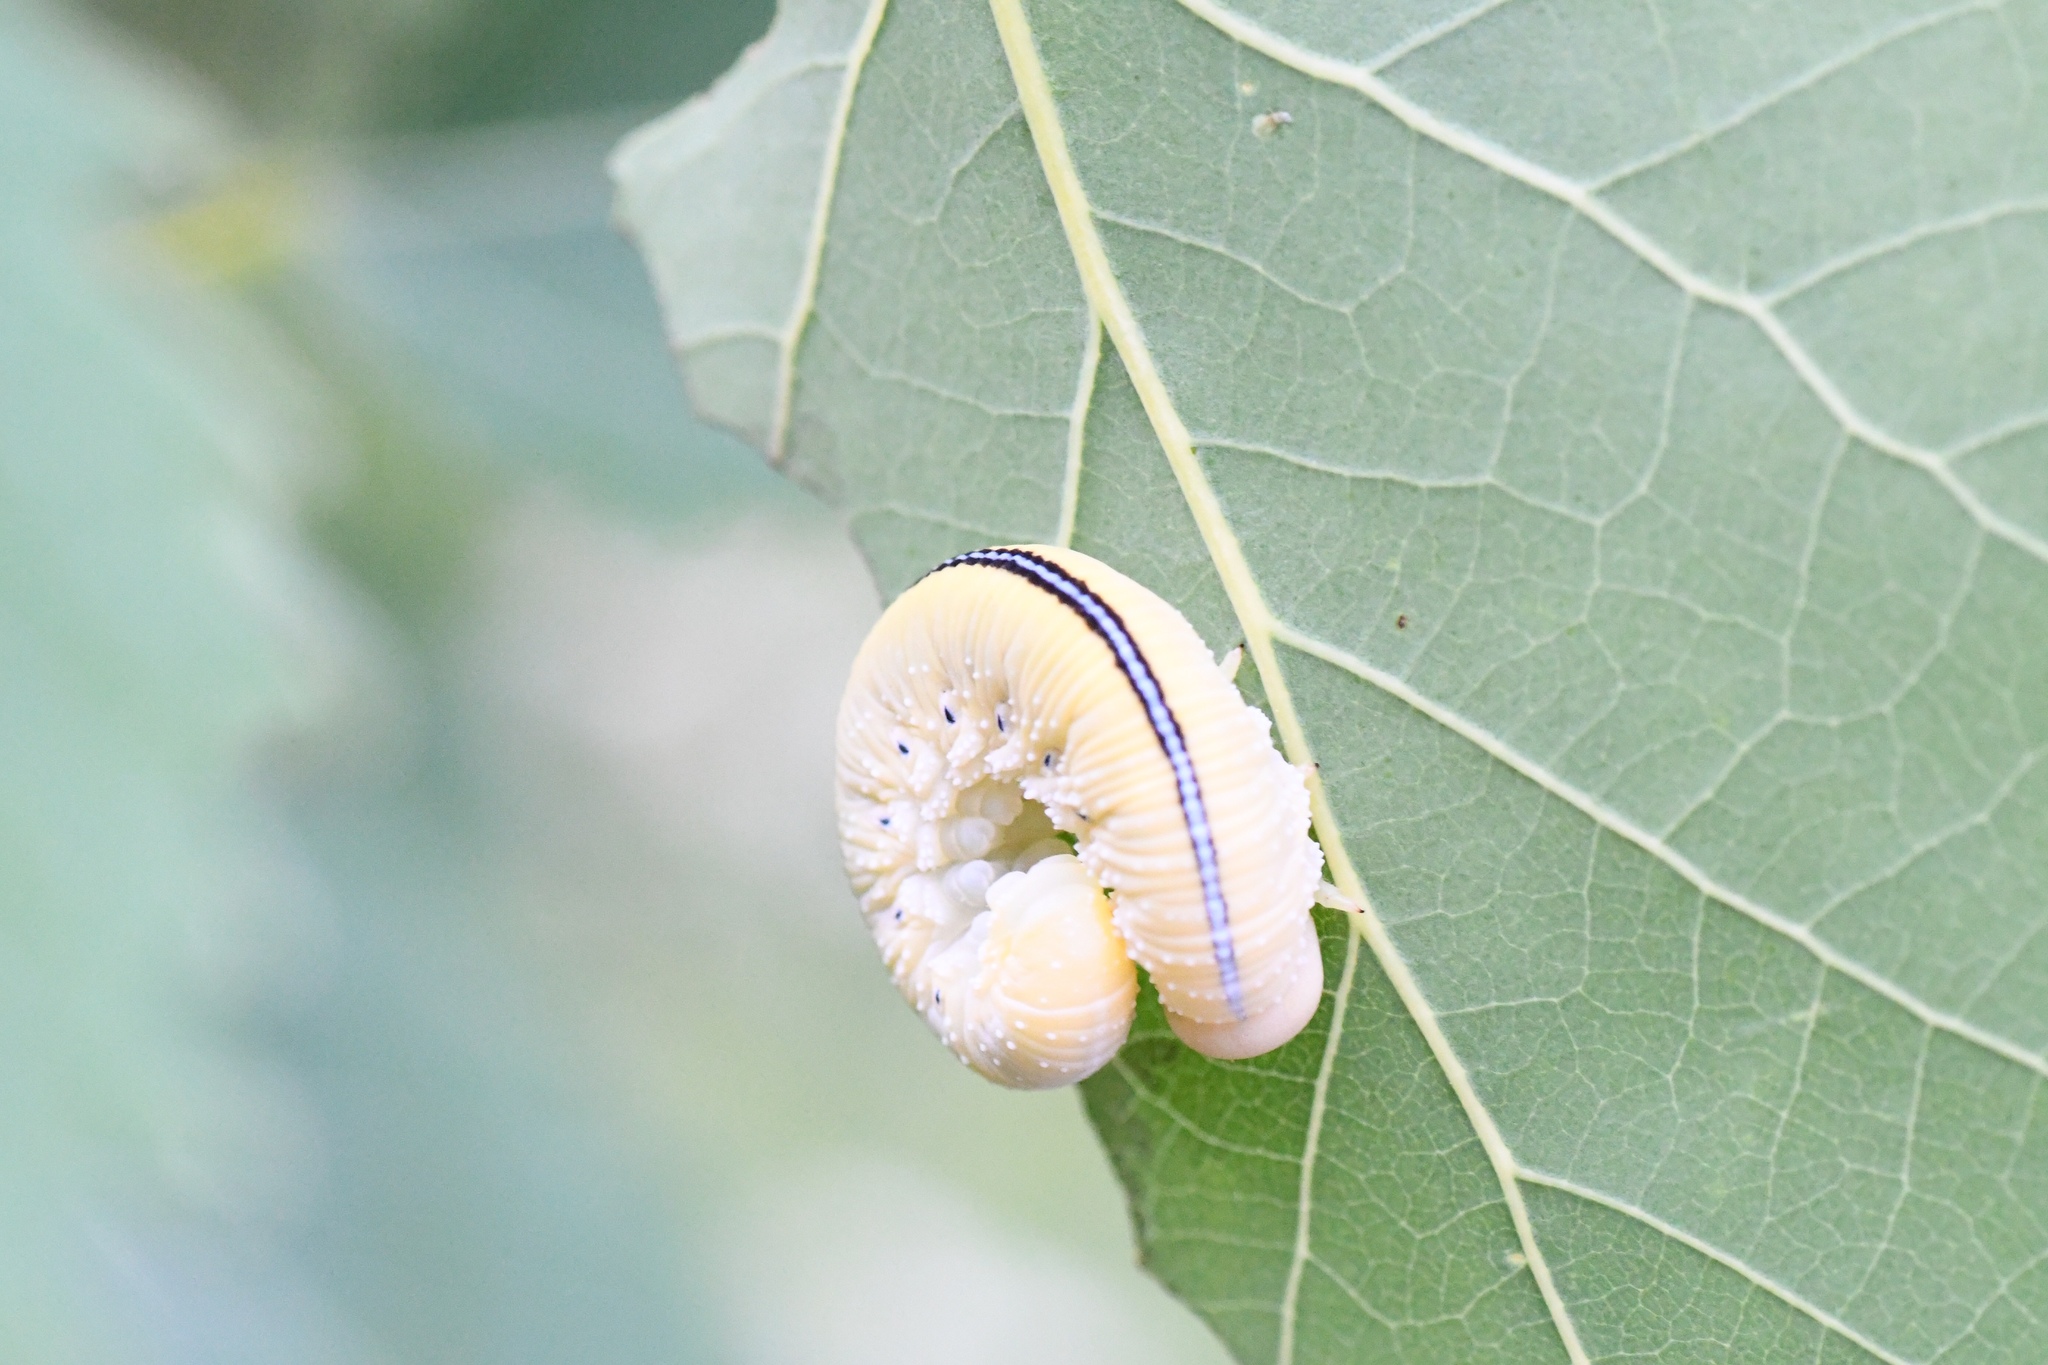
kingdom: Animalia
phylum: Arthropoda
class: Insecta
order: Hymenoptera
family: Cimbicidae
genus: Cimbex
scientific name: Cimbex americana
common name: Elm sawfly
